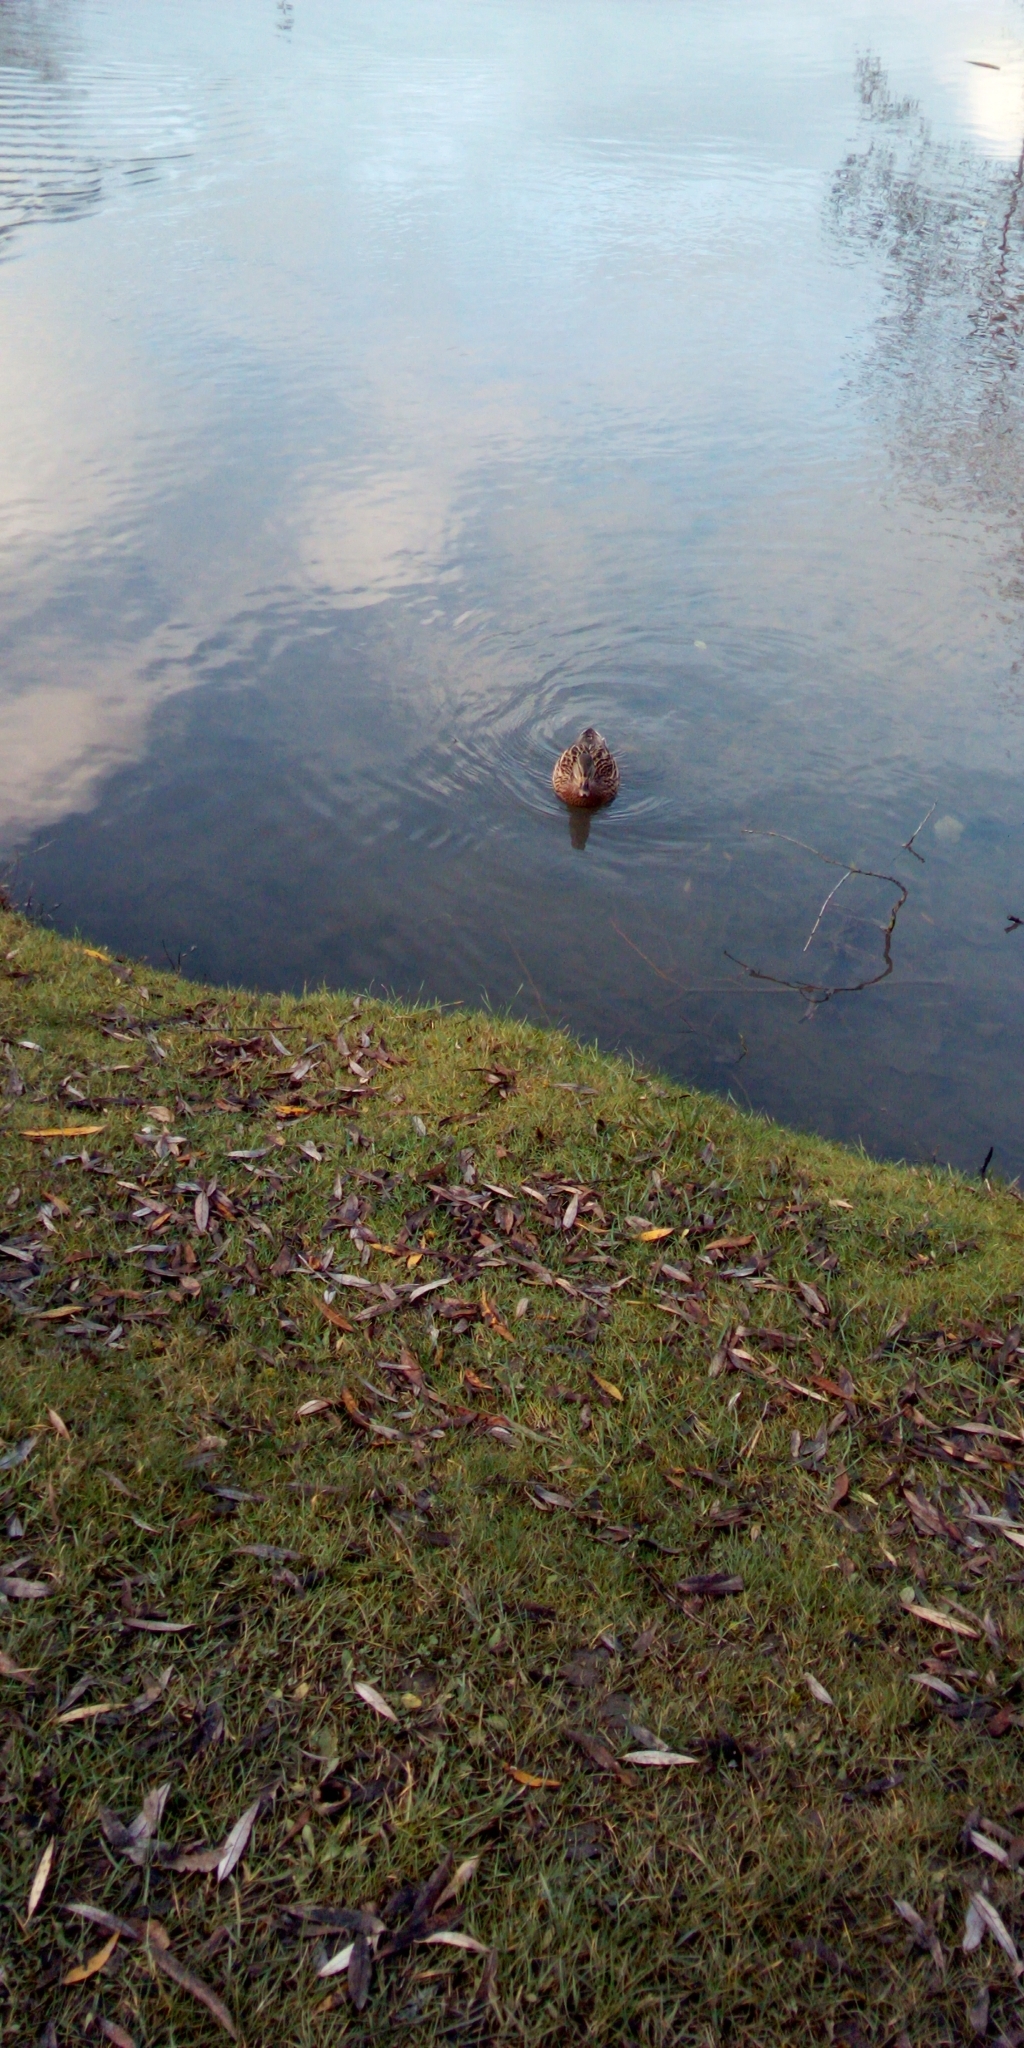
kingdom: Animalia
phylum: Chordata
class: Aves
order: Anseriformes
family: Anatidae
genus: Anas
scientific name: Anas platyrhynchos
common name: Mallard
